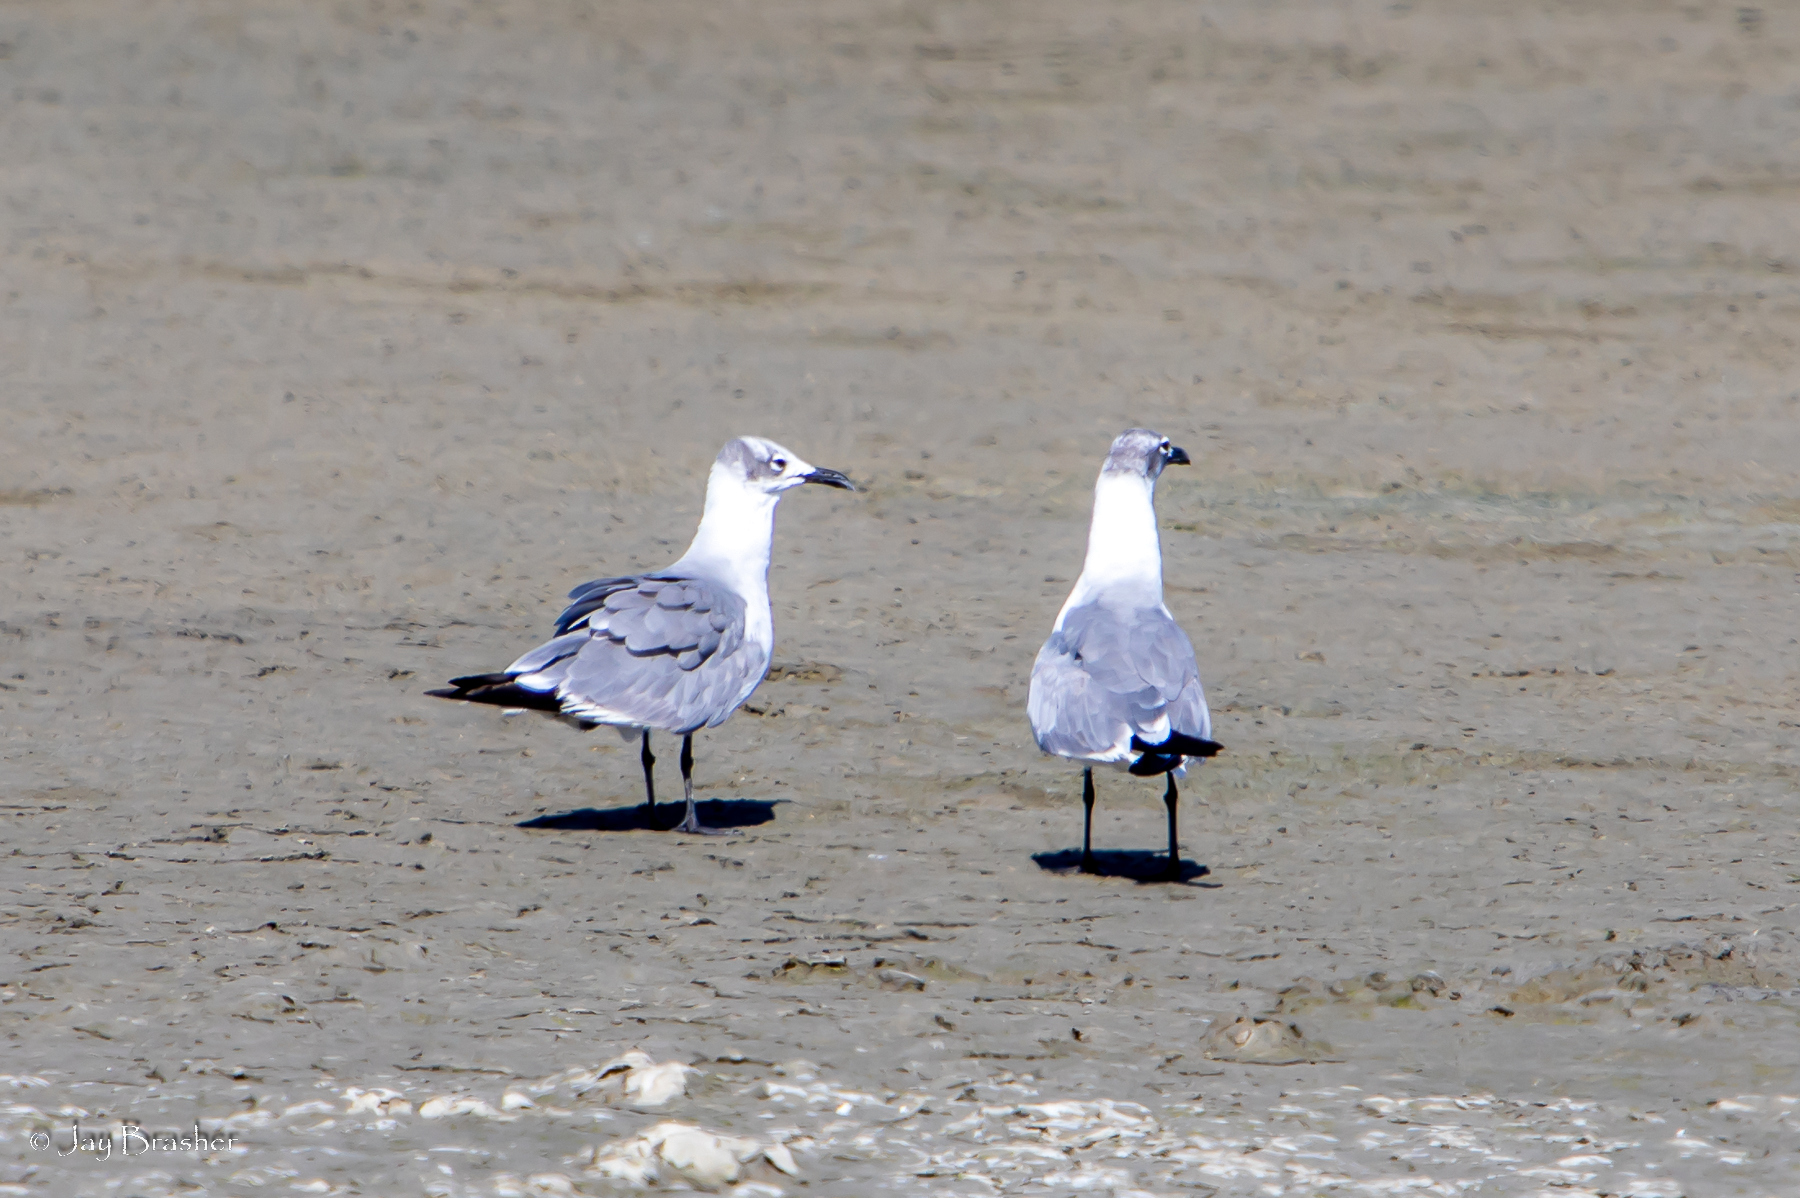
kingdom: Animalia
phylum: Chordata
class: Aves
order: Charadriiformes
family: Laridae
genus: Leucophaeus
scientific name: Leucophaeus atricilla
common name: Laughing gull
